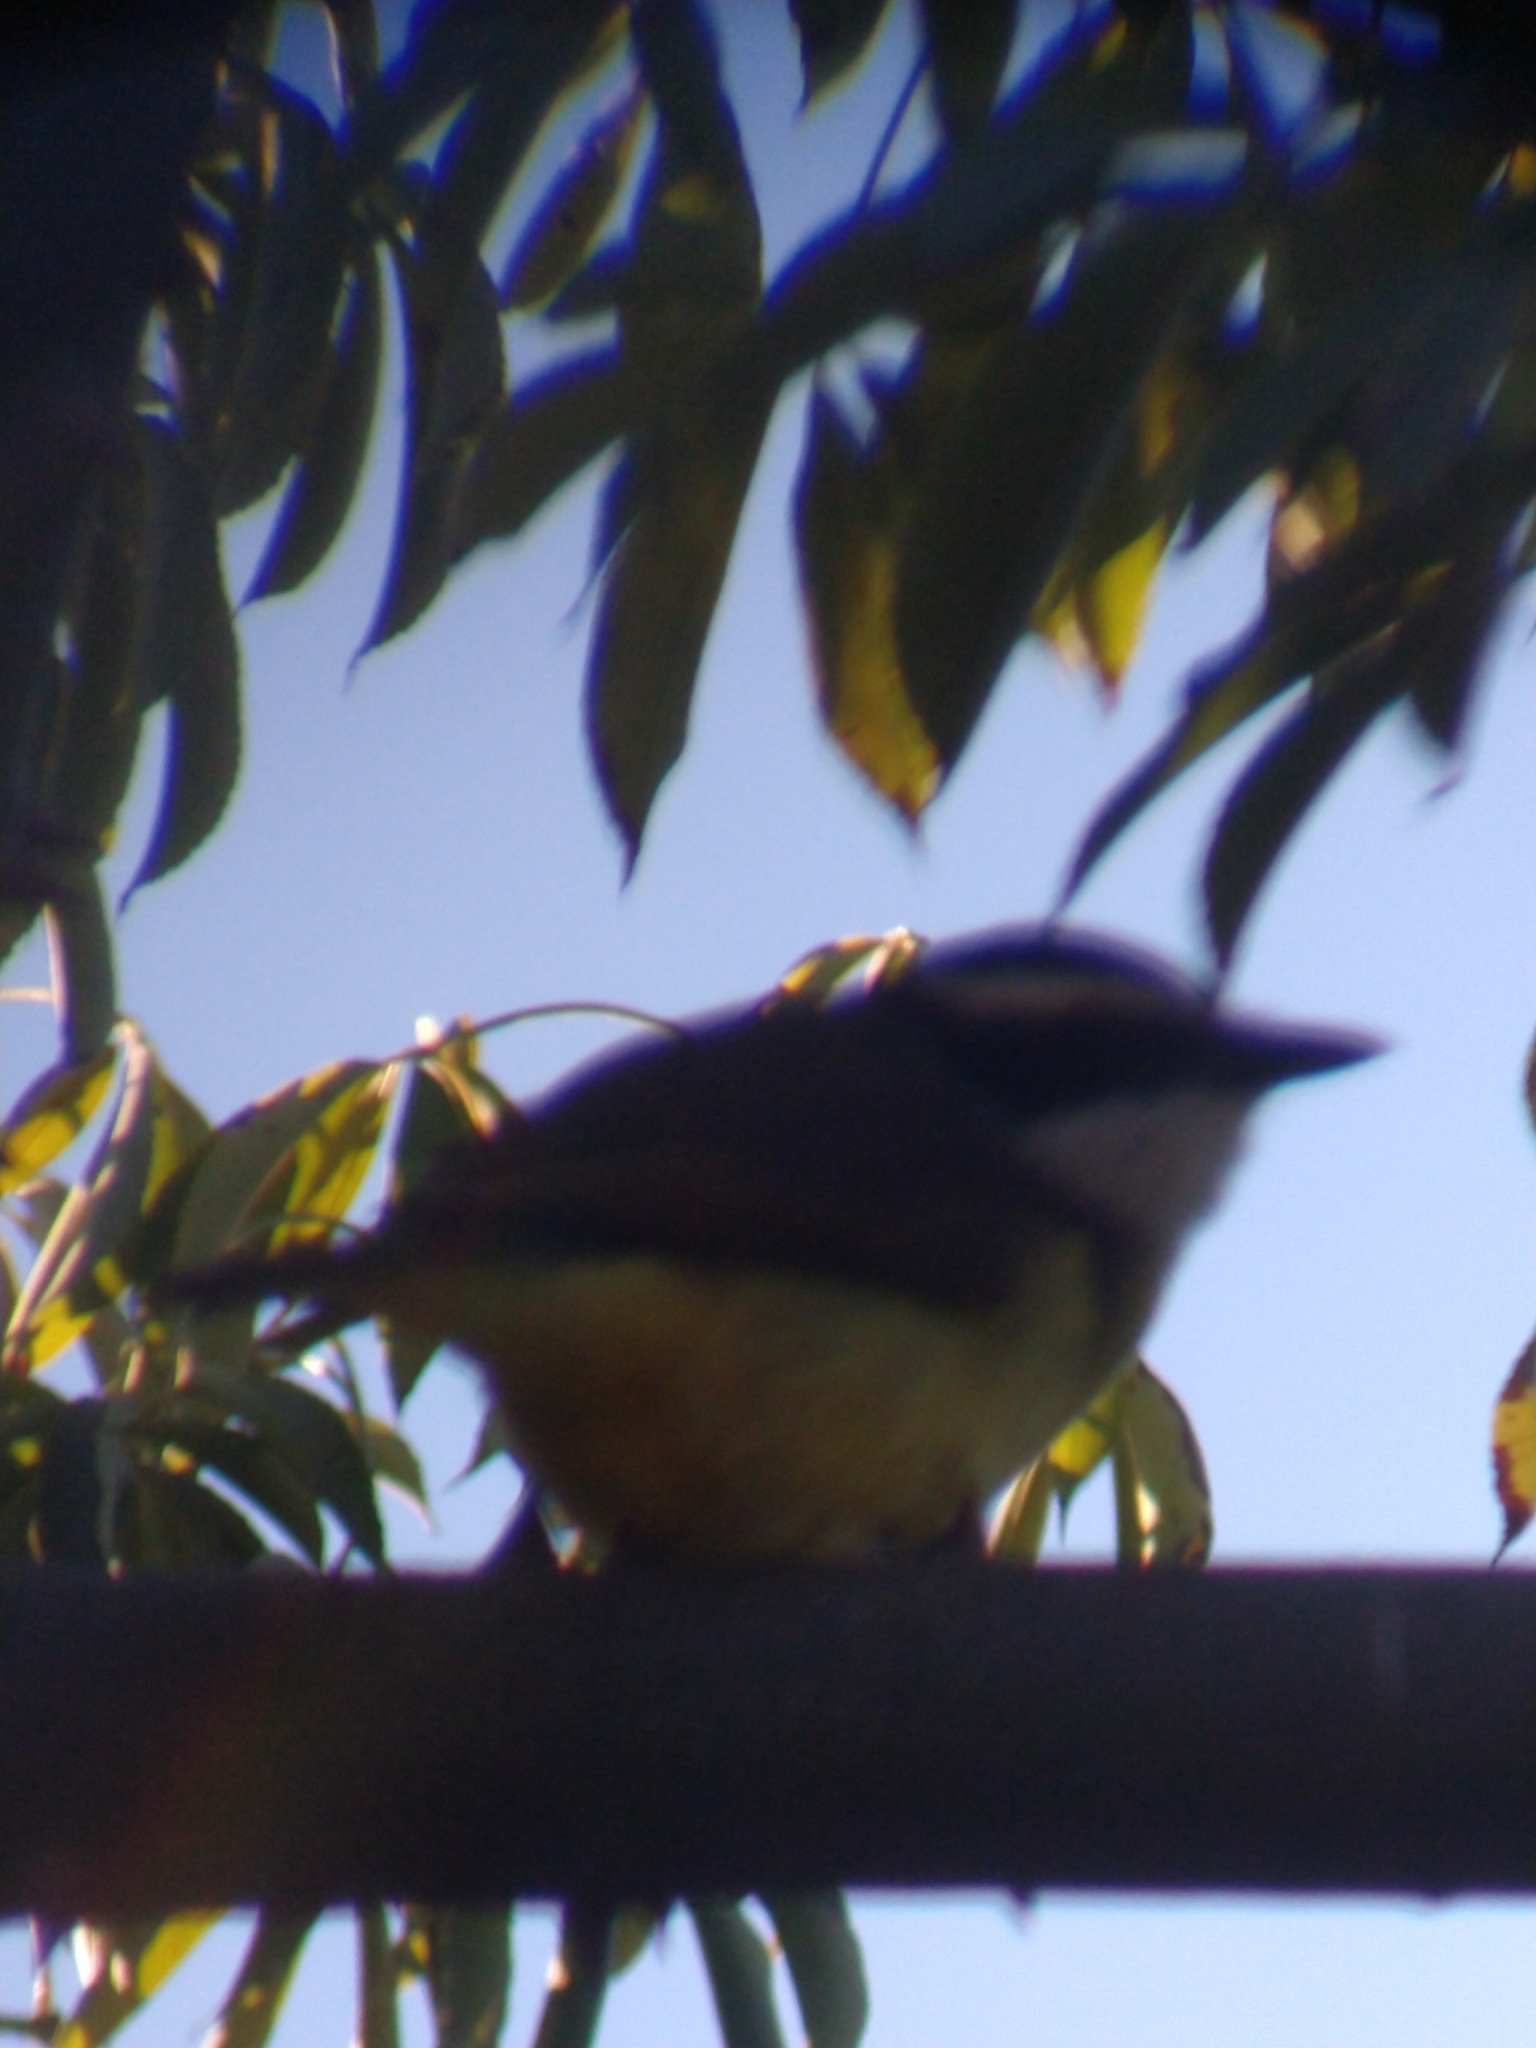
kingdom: Animalia
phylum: Chordata
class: Aves
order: Passeriformes
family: Tyrannidae
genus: Pitangus
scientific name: Pitangus sulphuratus
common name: Great kiskadee
